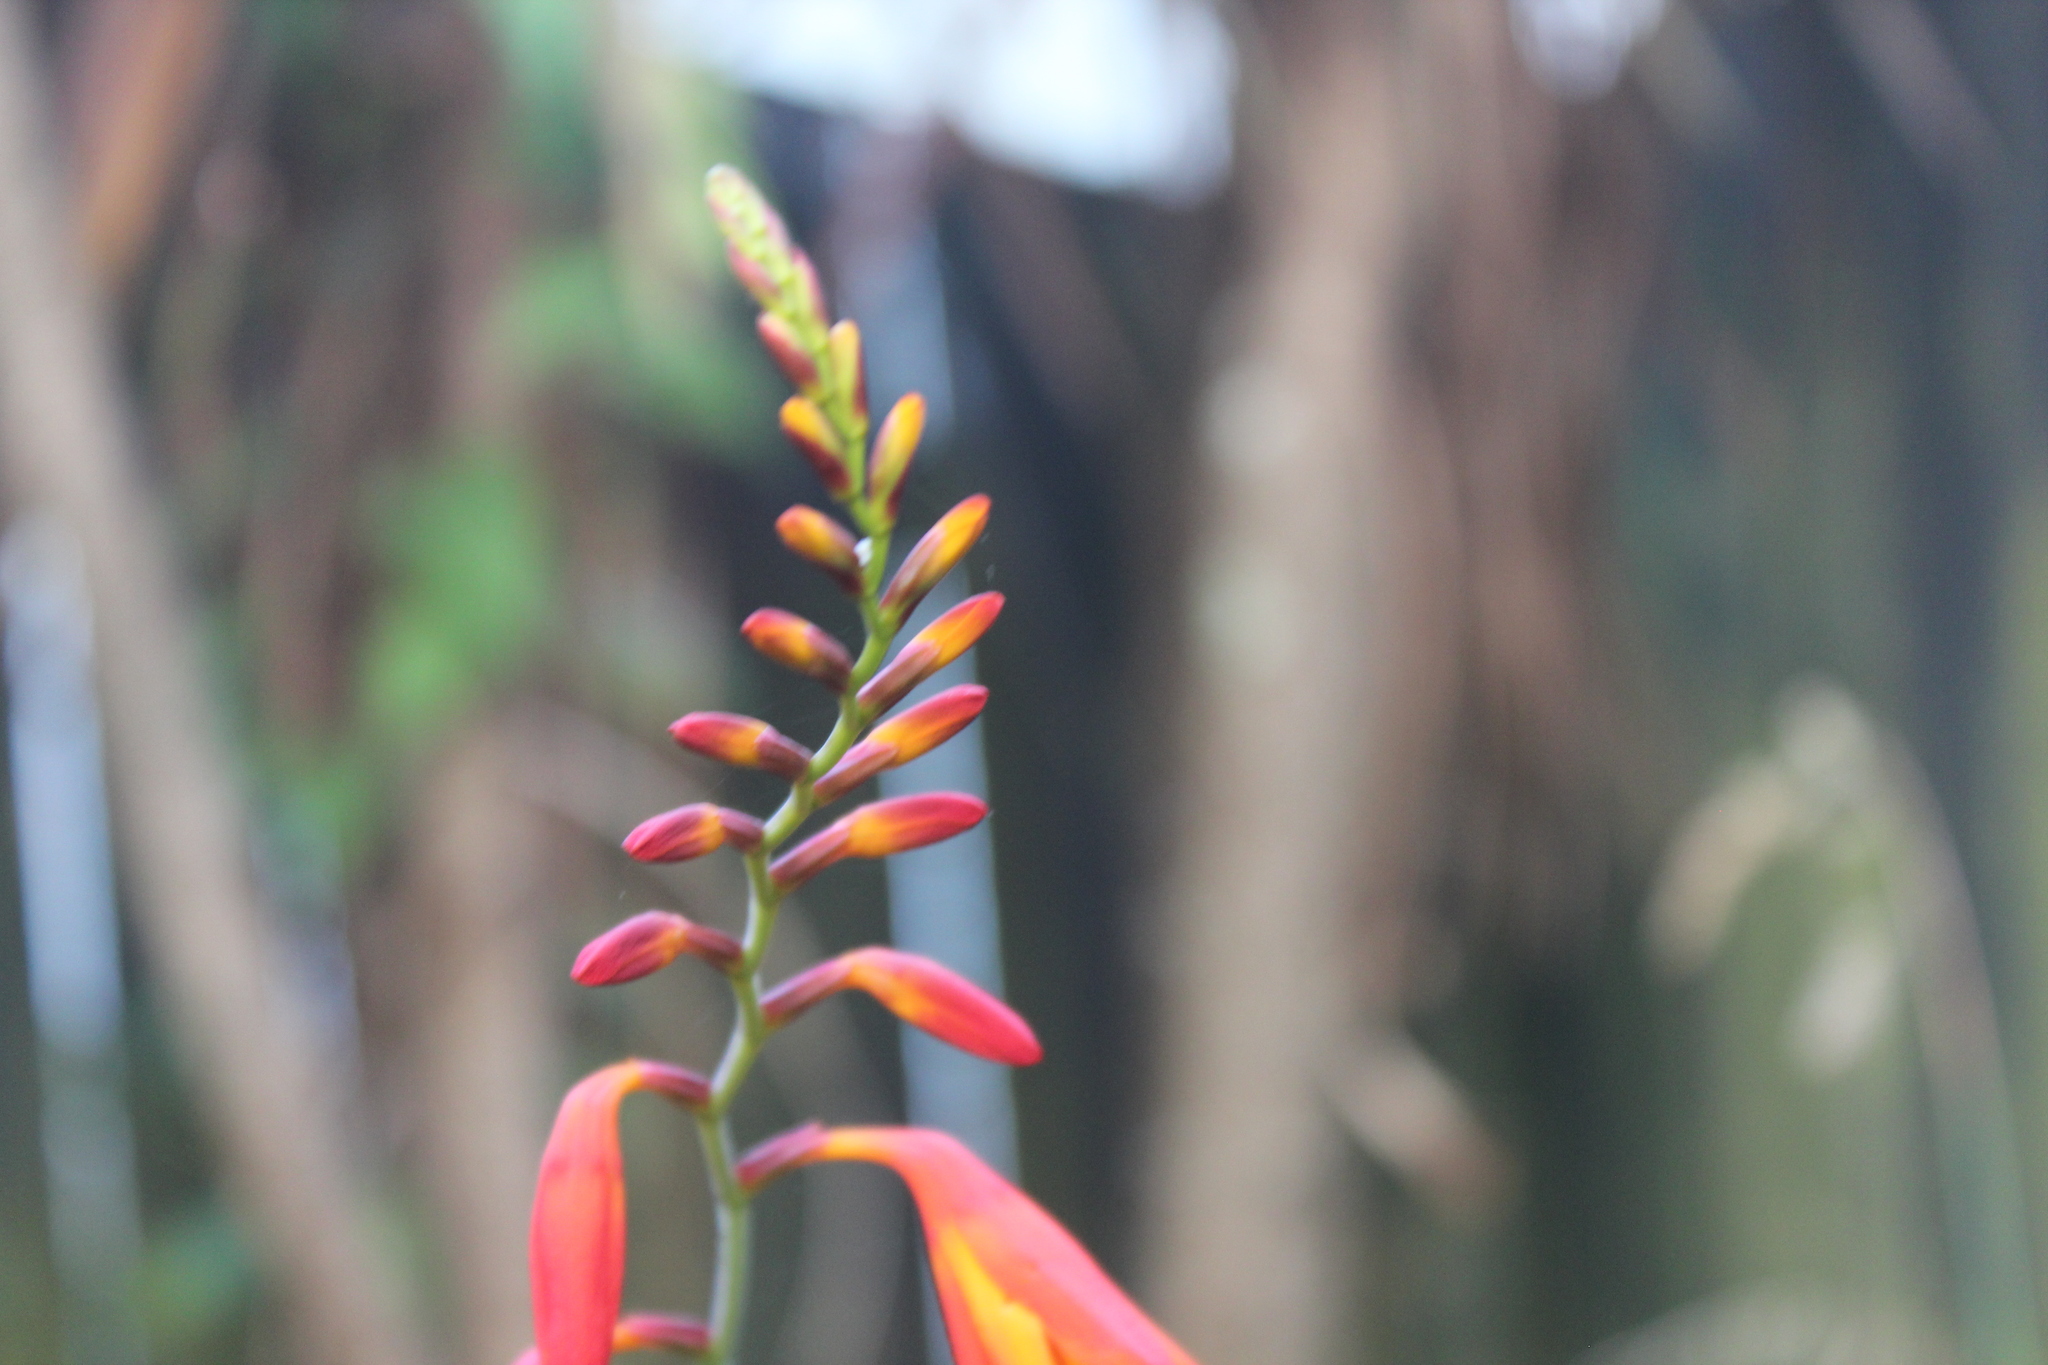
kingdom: Plantae
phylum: Tracheophyta
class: Liliopsida
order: Asparagales
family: Iridaceae
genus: Crocosmia
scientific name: Crocosmia crocosmiiflora
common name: Montbretia
